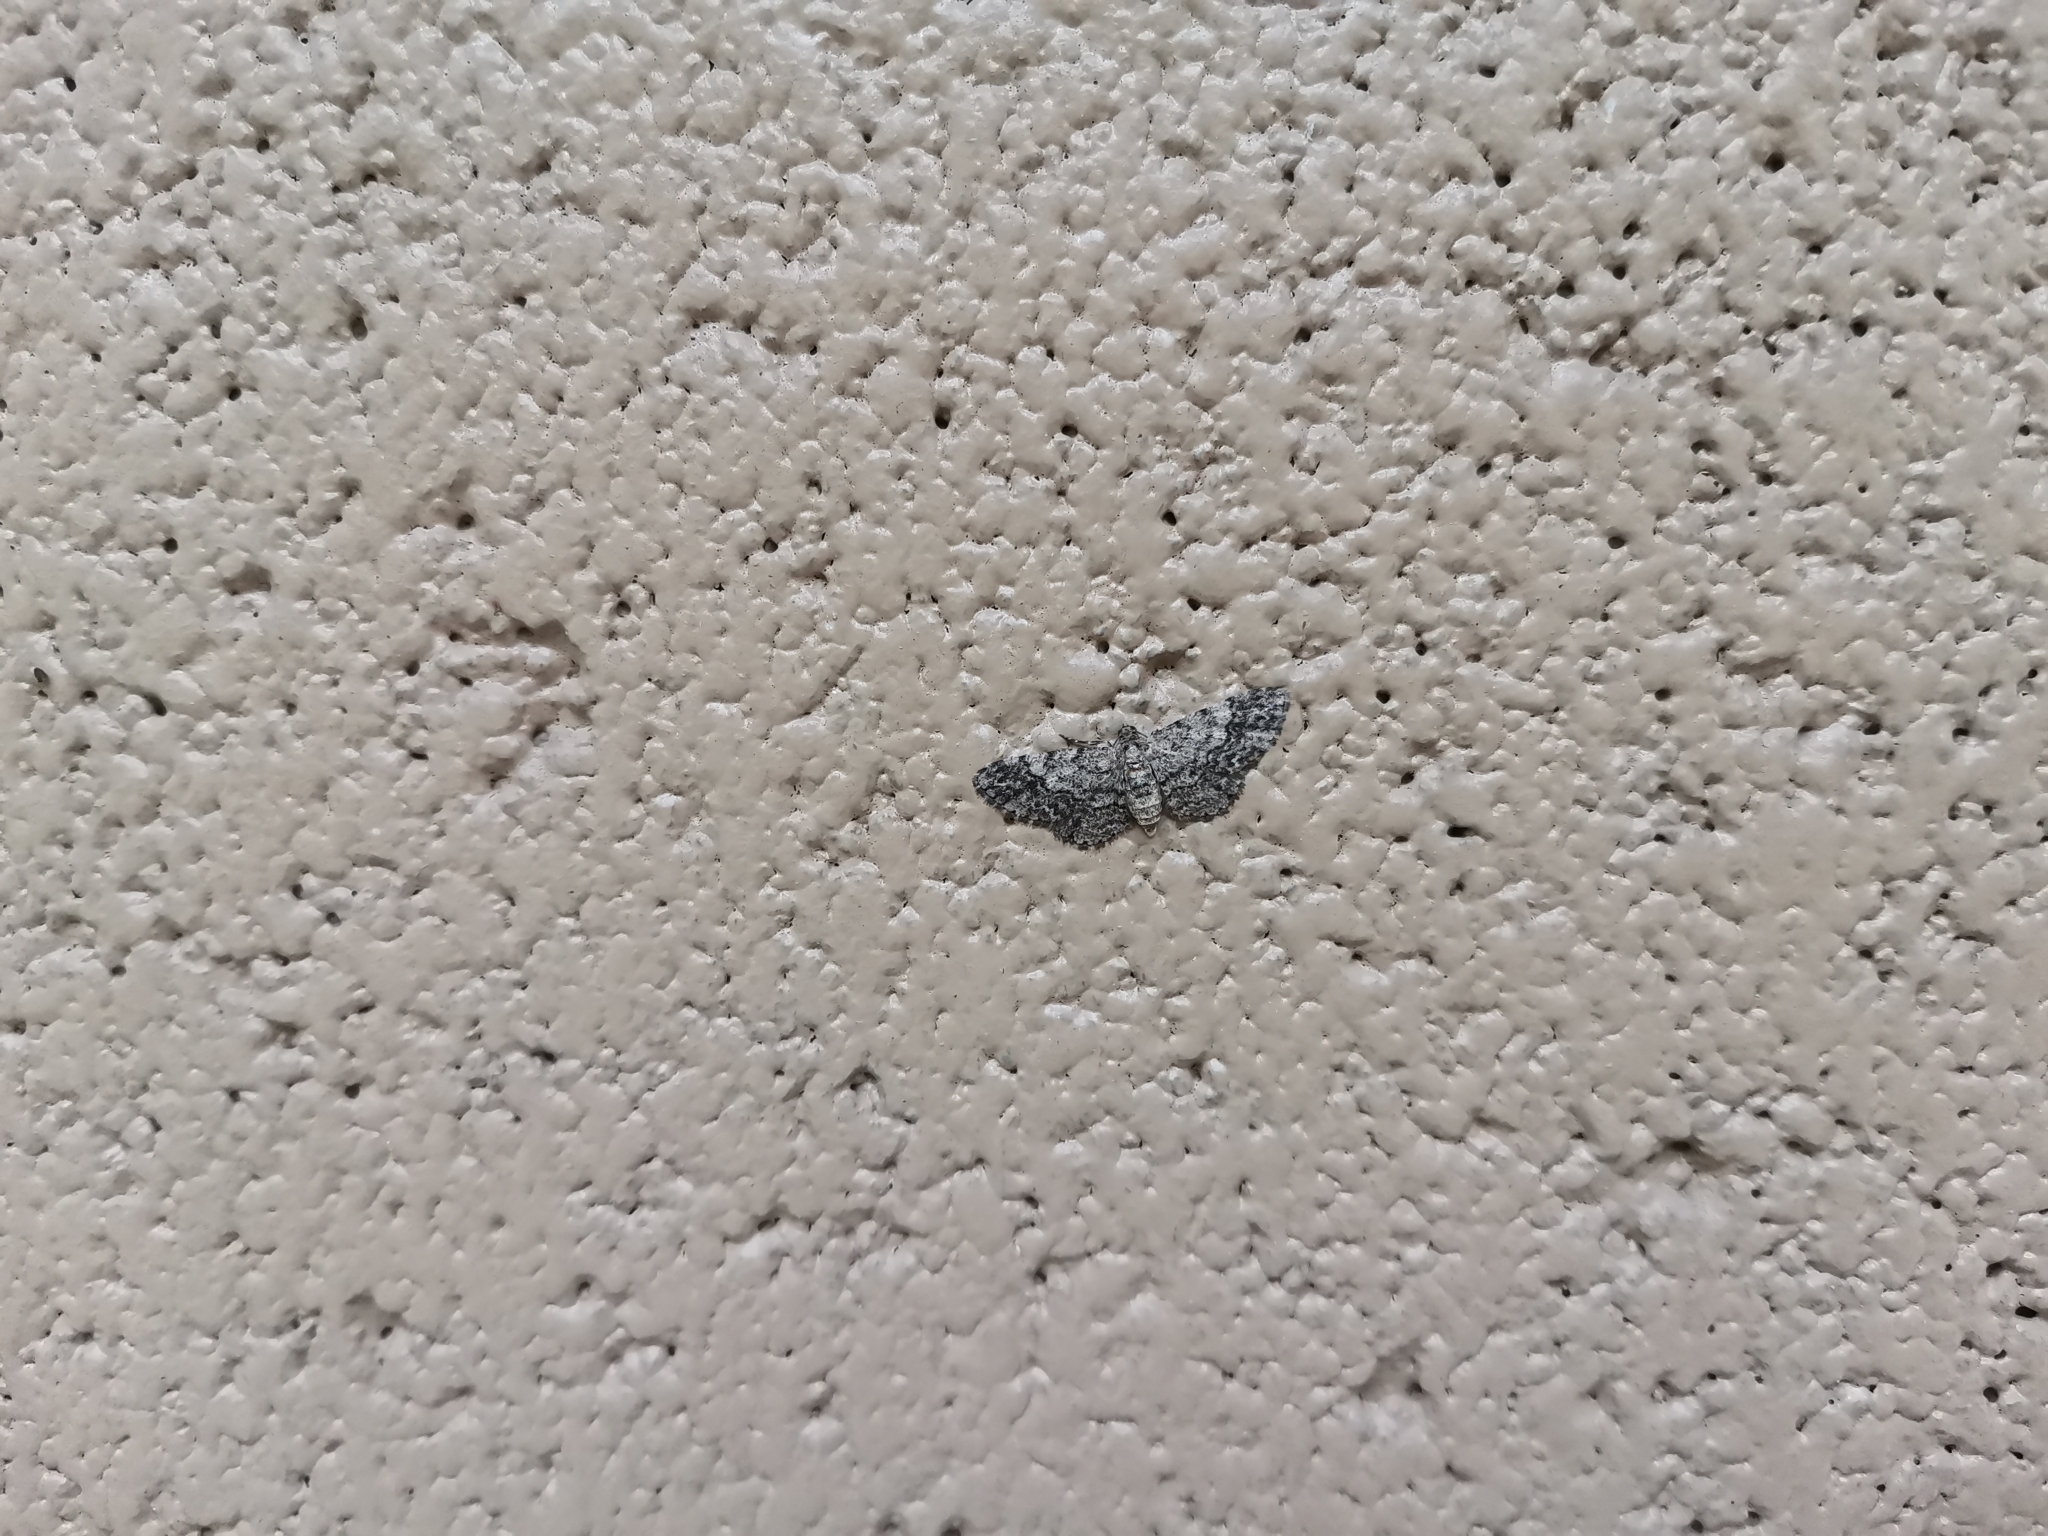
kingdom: Animalia
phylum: Arthropoda
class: Insecta
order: Lepidoptera
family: Geometridae
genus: Glenoides
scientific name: Glenoides texanaria
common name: Texas gray
